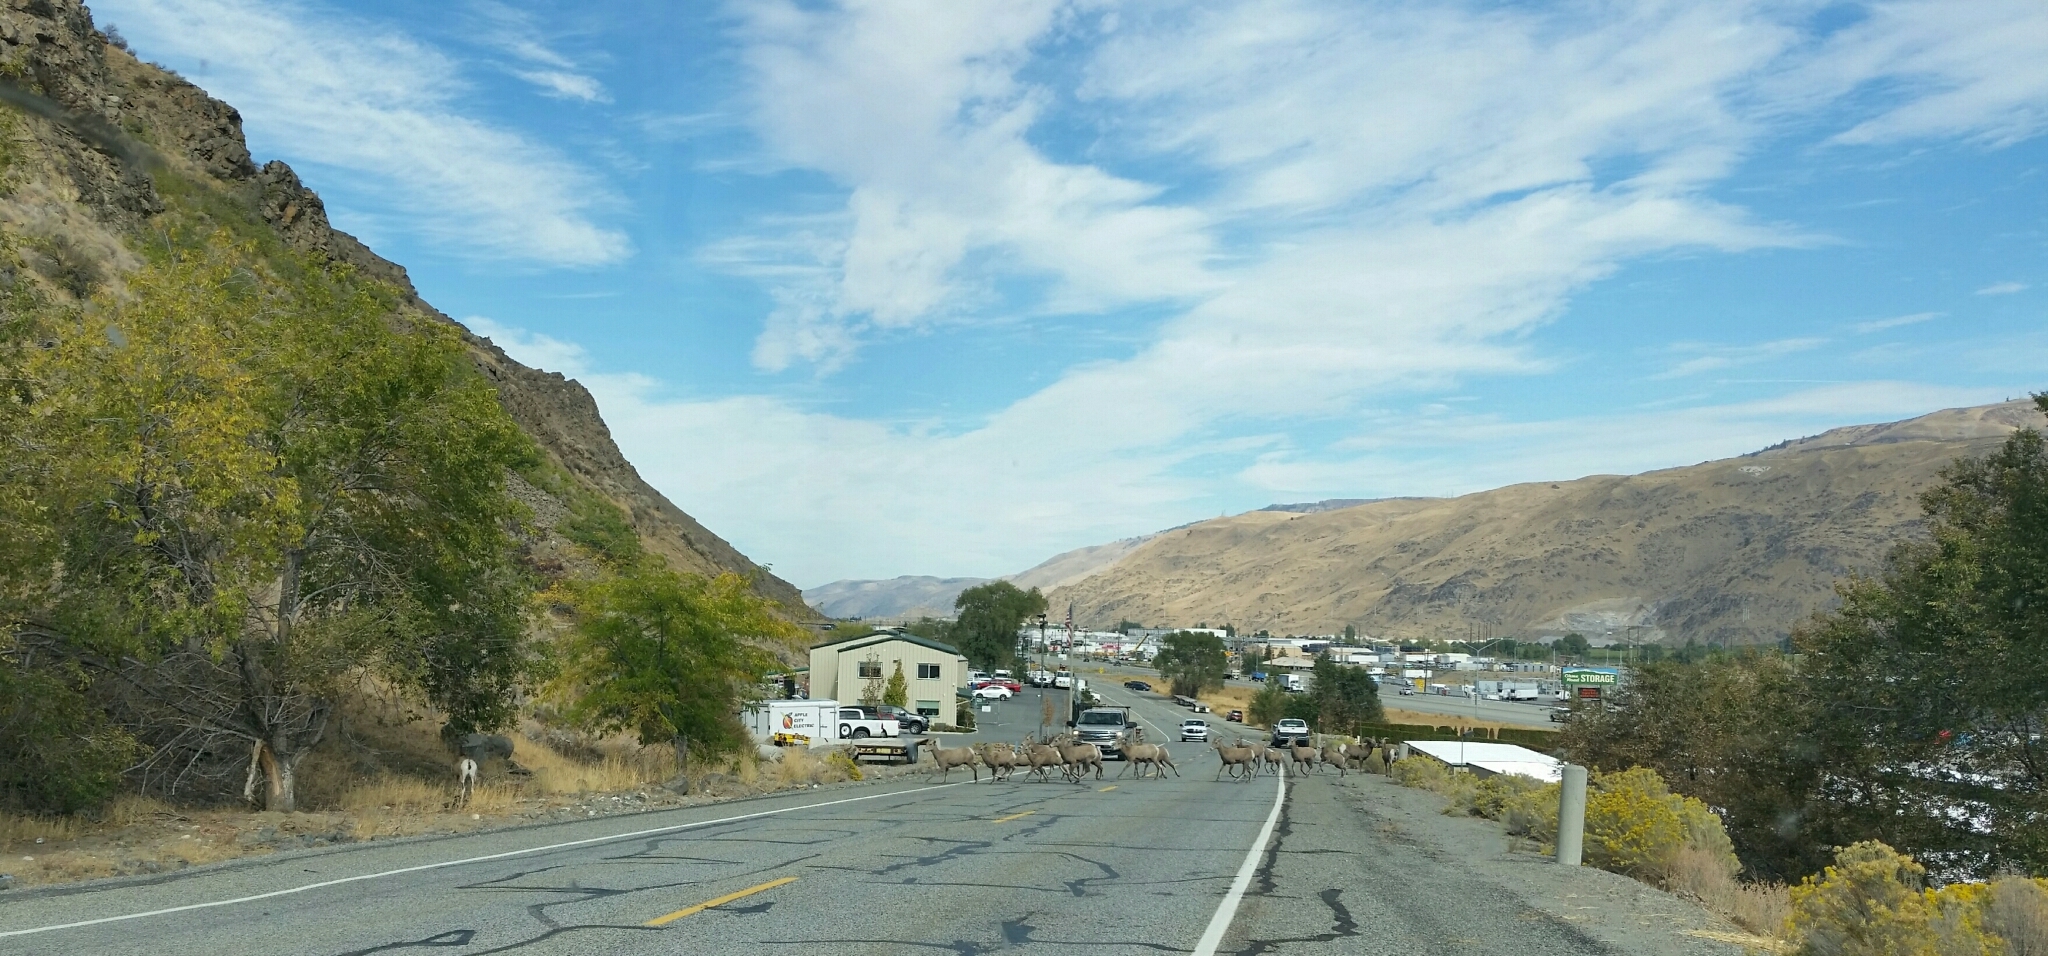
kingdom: Animalia
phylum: Chordata
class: Mammalia
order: Artiodactyla
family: Bovidae
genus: Ovis
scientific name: Ovis canadensis
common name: Bighorn sheep
